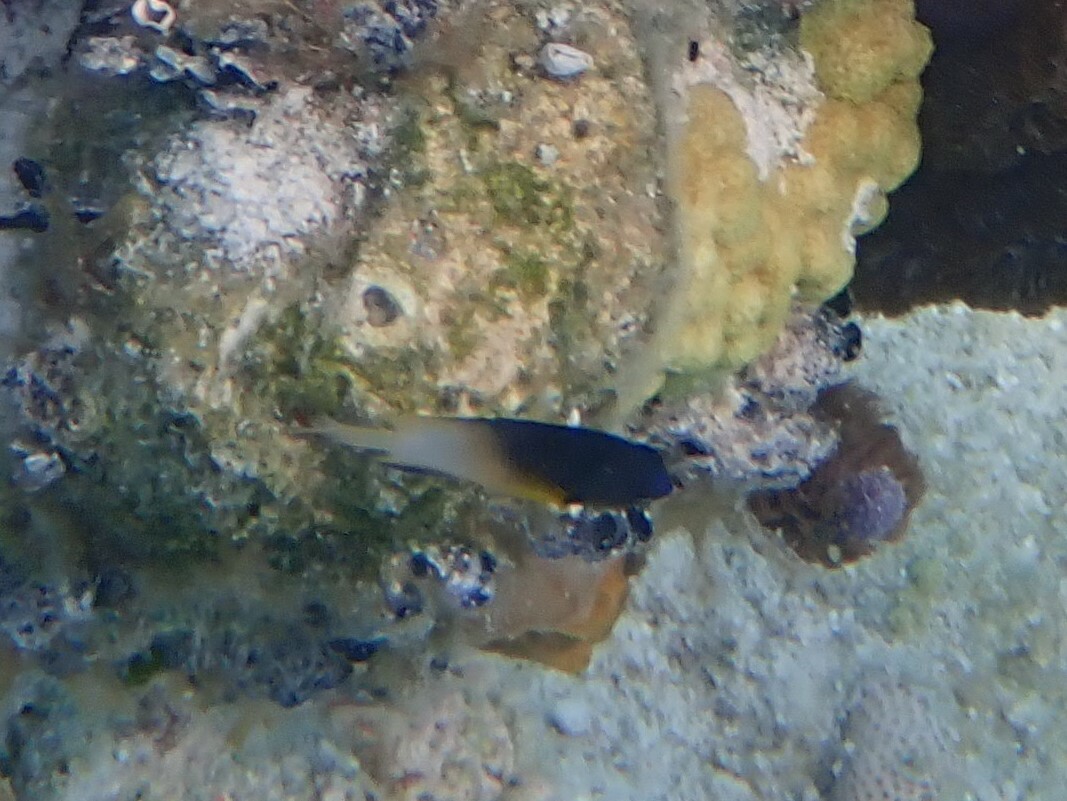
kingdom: Animalia
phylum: Chordata
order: Perciformes
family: Pomacentridae
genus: Stegastes
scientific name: Stegastes partitus
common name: Bicolor damselfish
